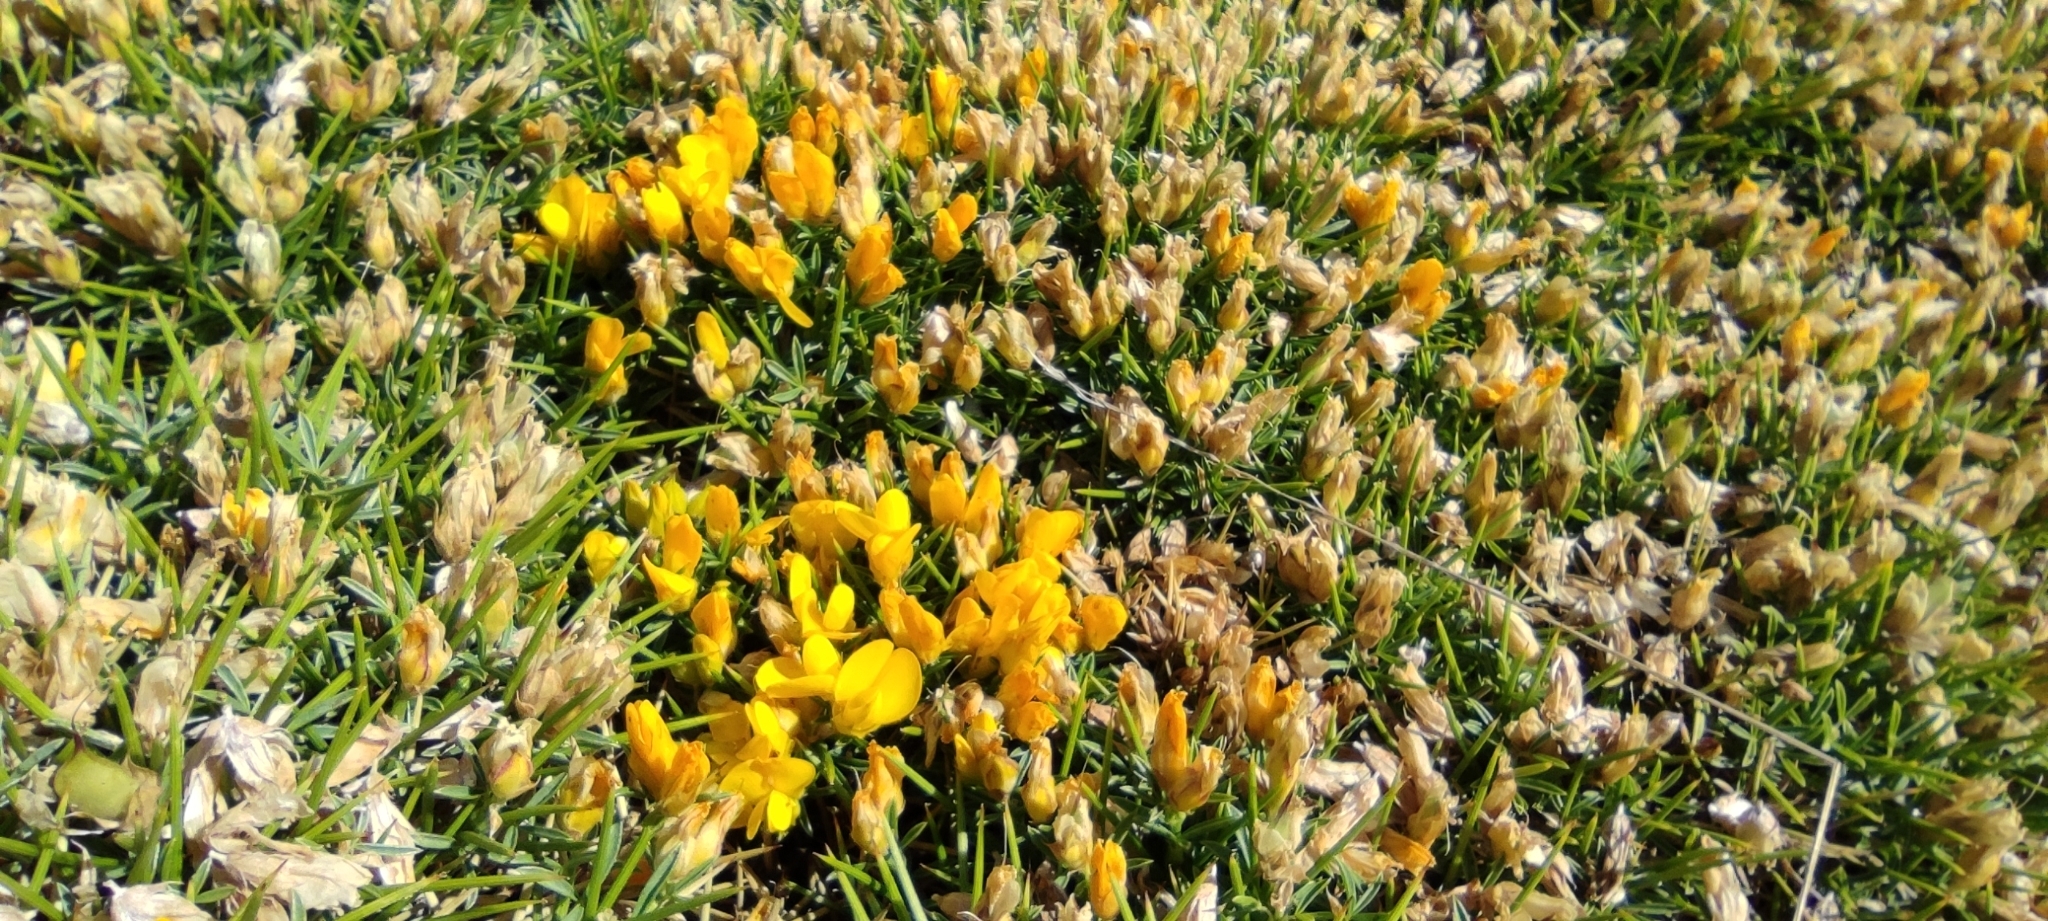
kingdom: Plantae
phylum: Tracheophyta
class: Magnoliopsida
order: Fabales
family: Fabaceae
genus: Echinospartum
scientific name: Echinospartum horridum
